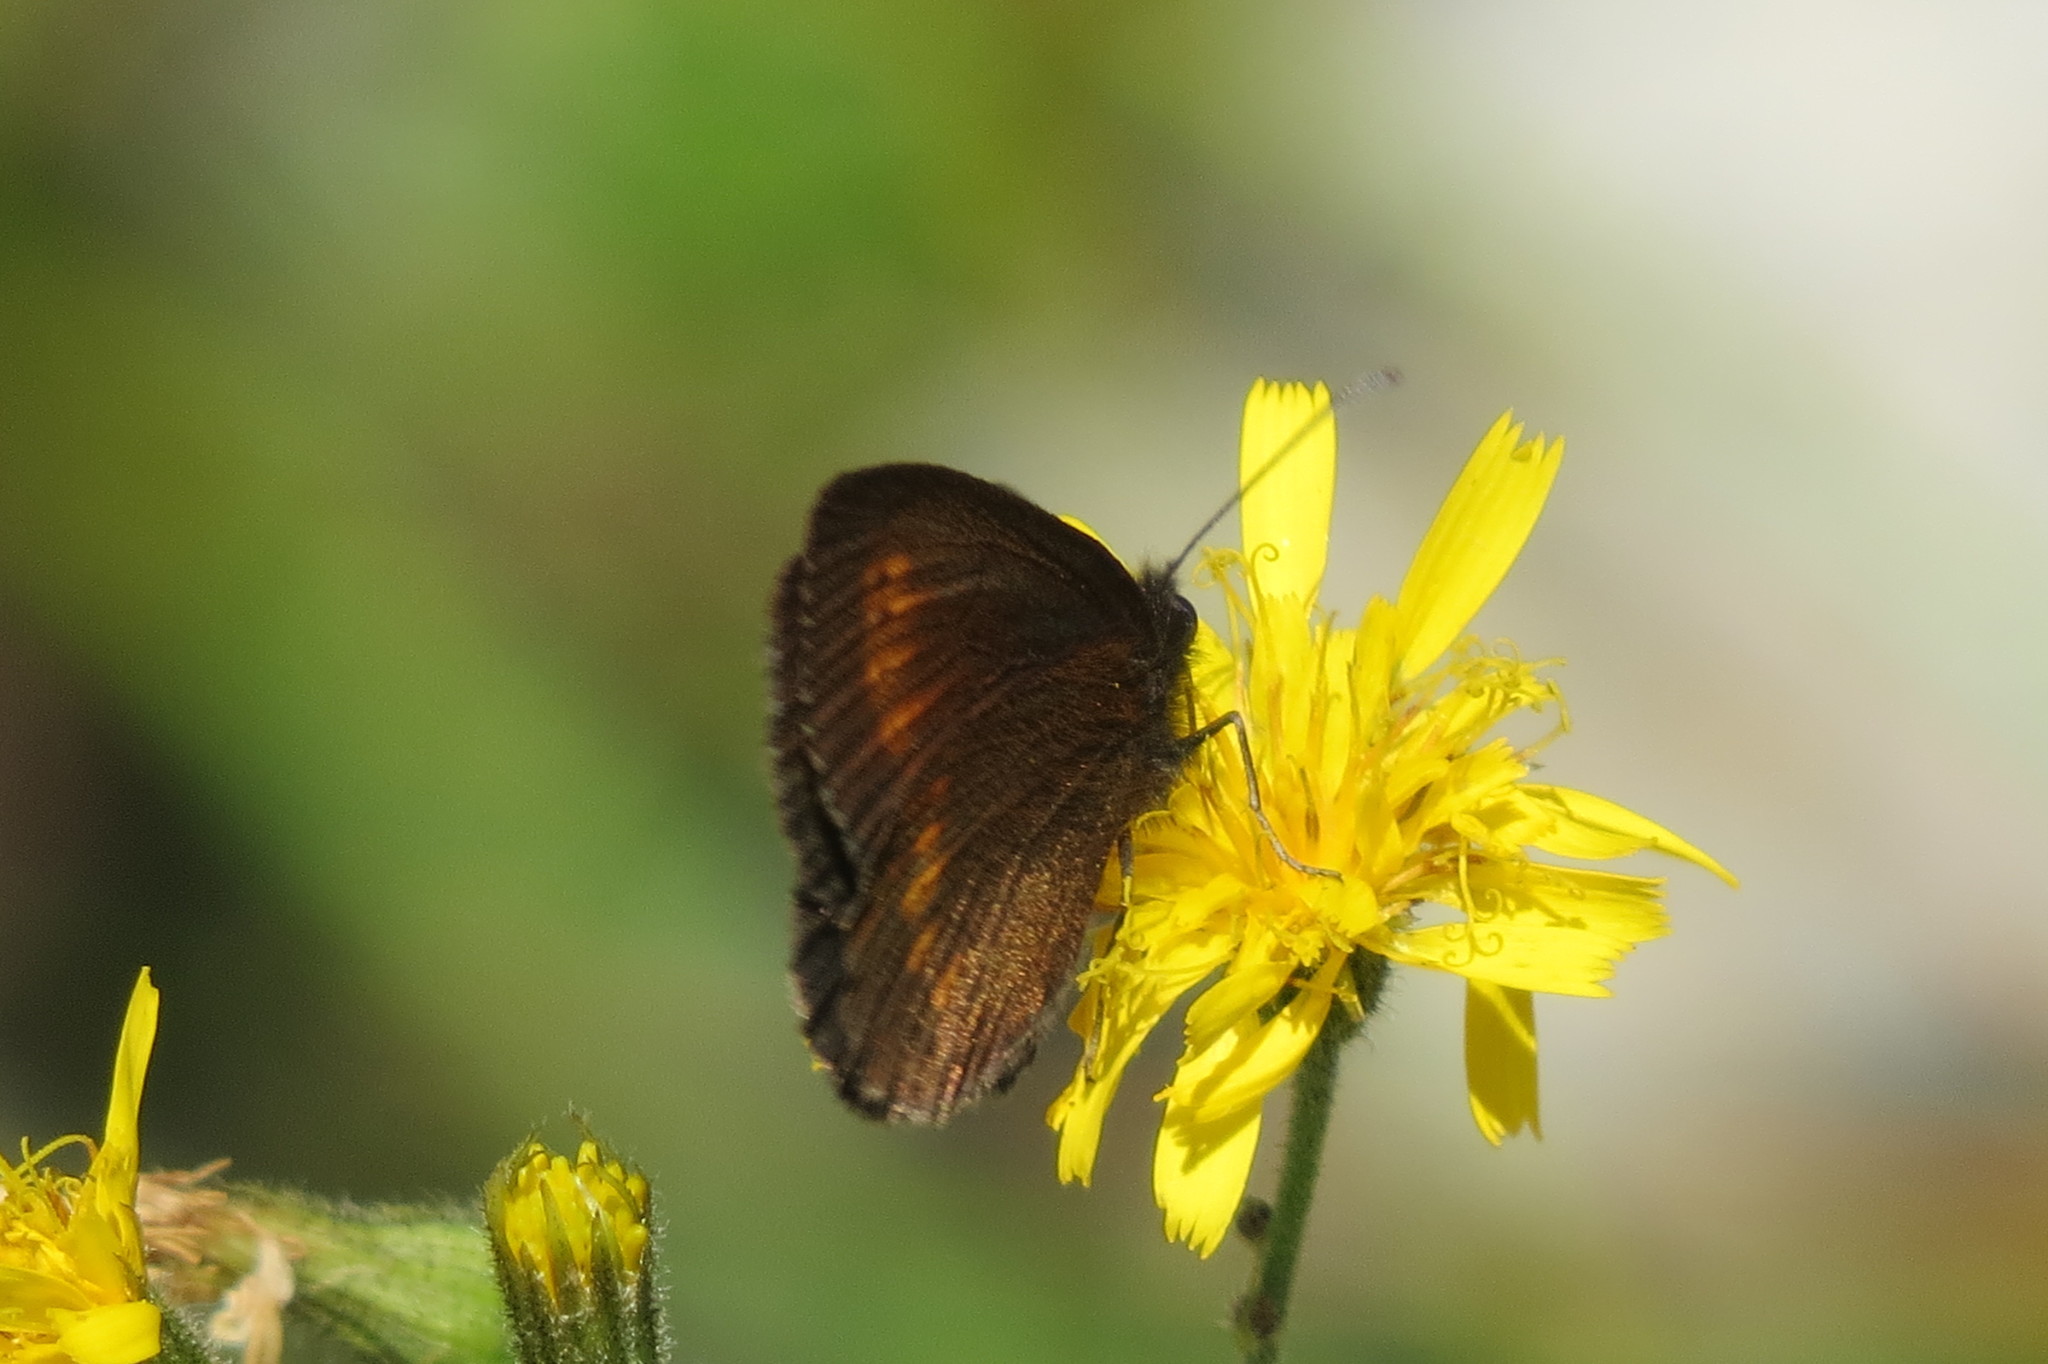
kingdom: Animalia
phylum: Arthropoda
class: Insecta
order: Lepidoptera
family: Nymphalidae
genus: Erebia
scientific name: Erebia melampus
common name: Lesser mountain ringlet
